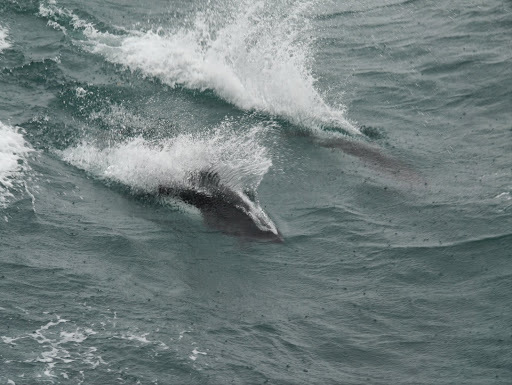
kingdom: Animalia
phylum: Chordata
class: Mammalia
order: Cetacea
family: Phocoenidae
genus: Phocoenoides
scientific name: Phocoenoides dalli
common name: Dall's porpoise
